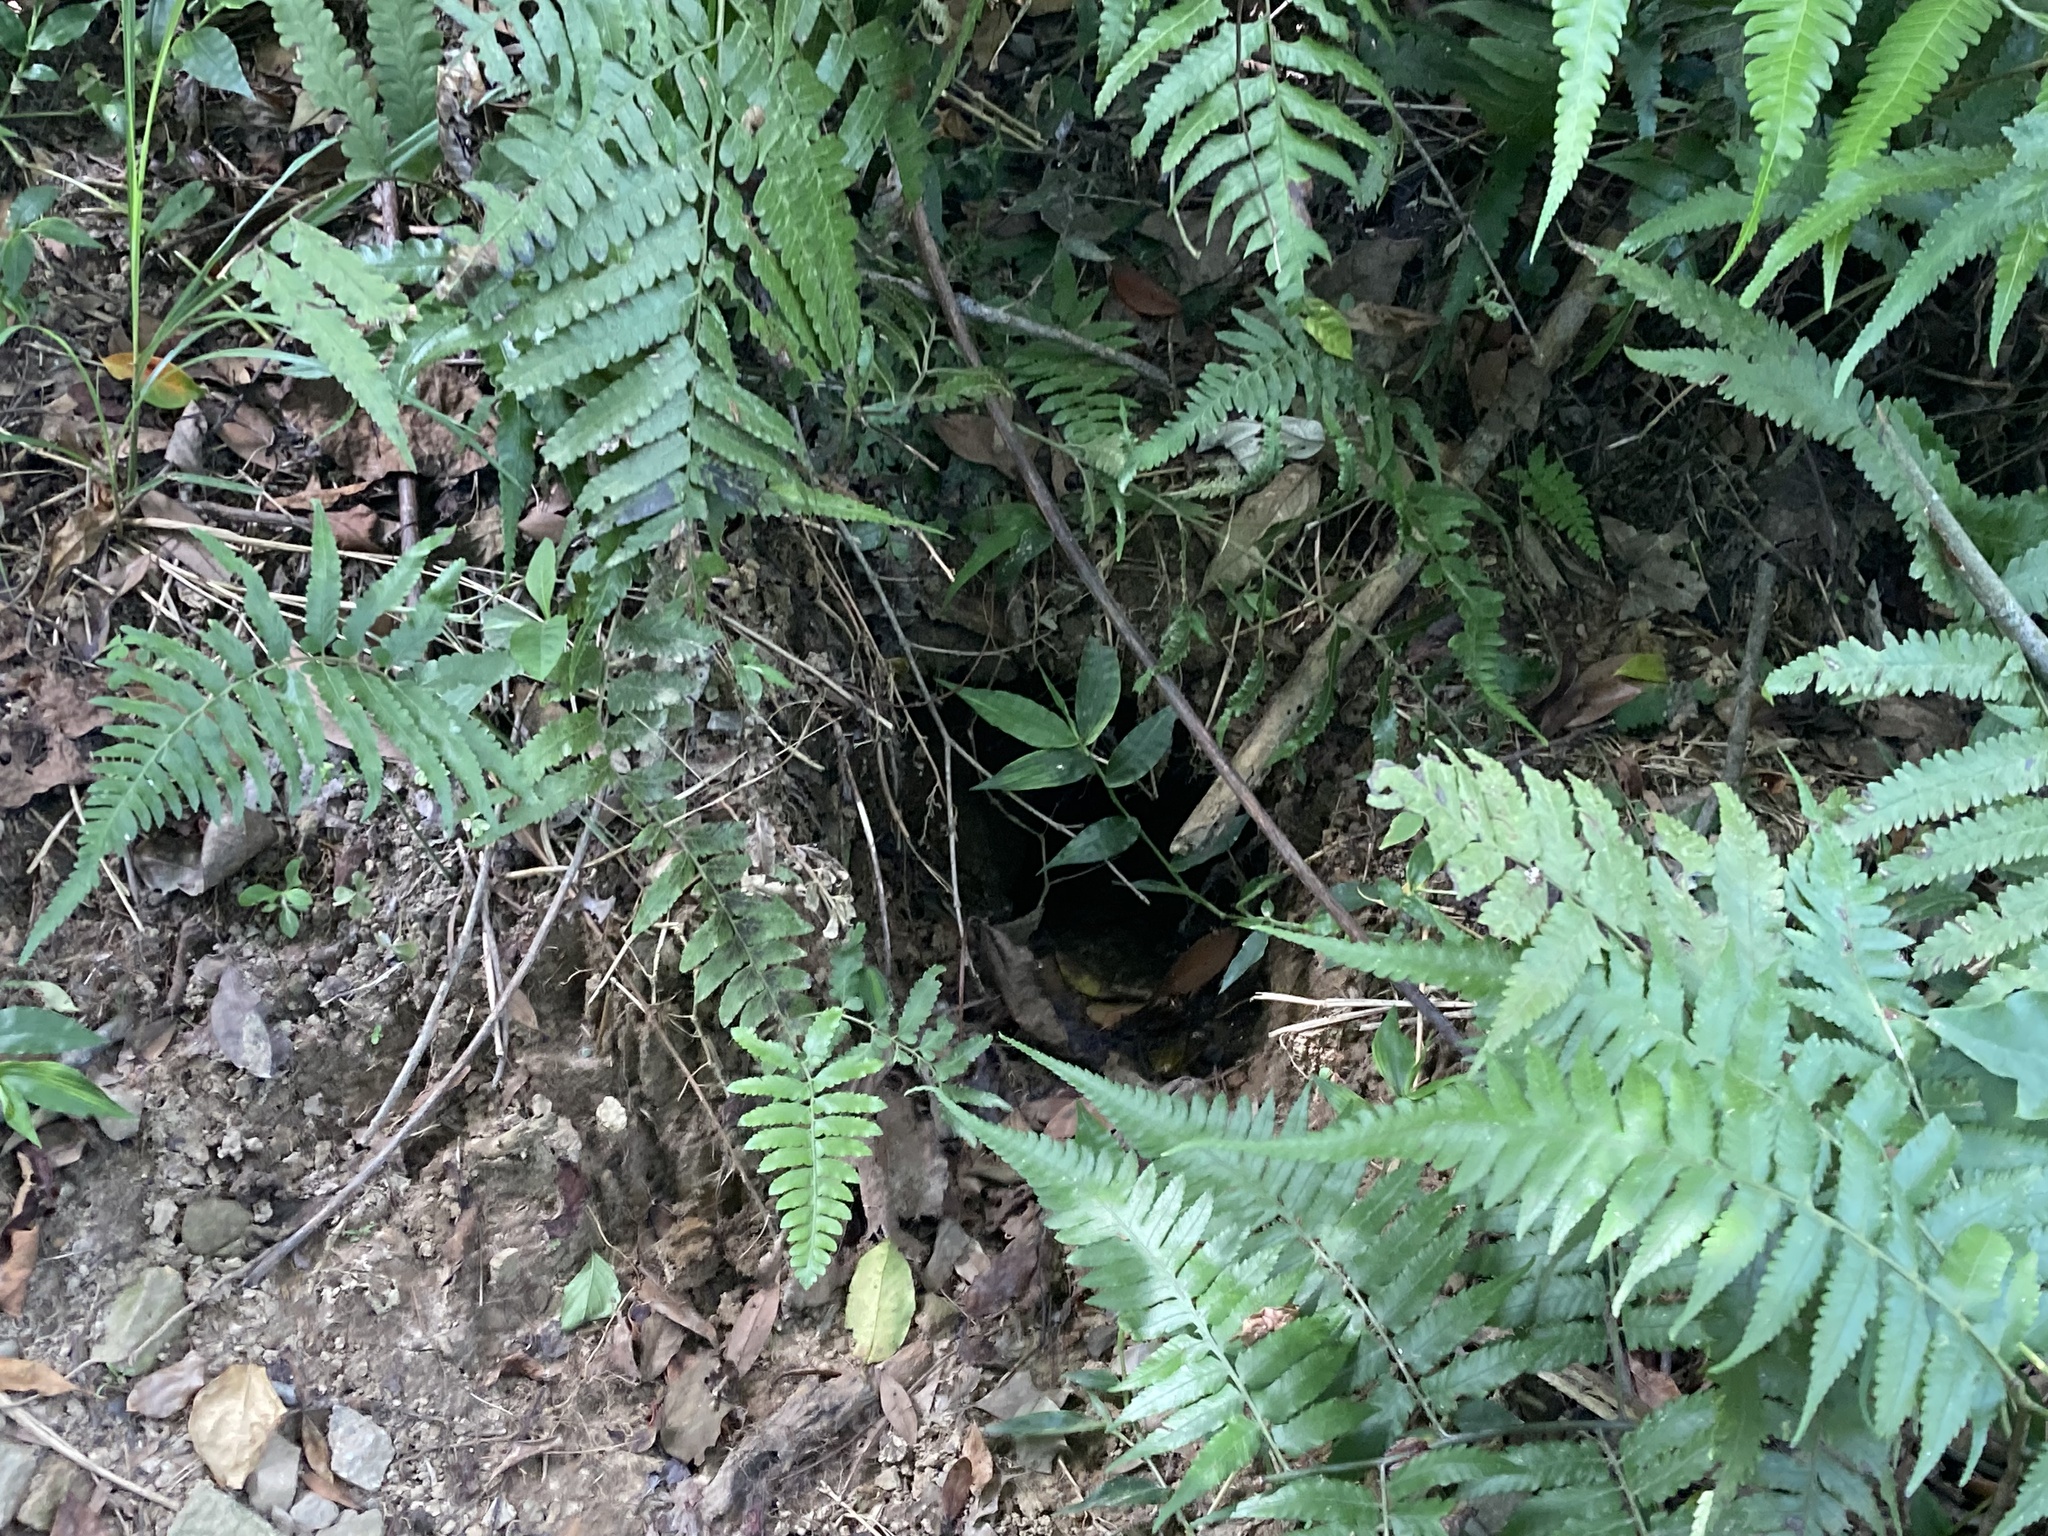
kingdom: Animalia
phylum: Chordata
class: Mammalia
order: Pholidota
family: Manidae
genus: Manis
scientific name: Manis pentadactyla
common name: Chinese pangolin
